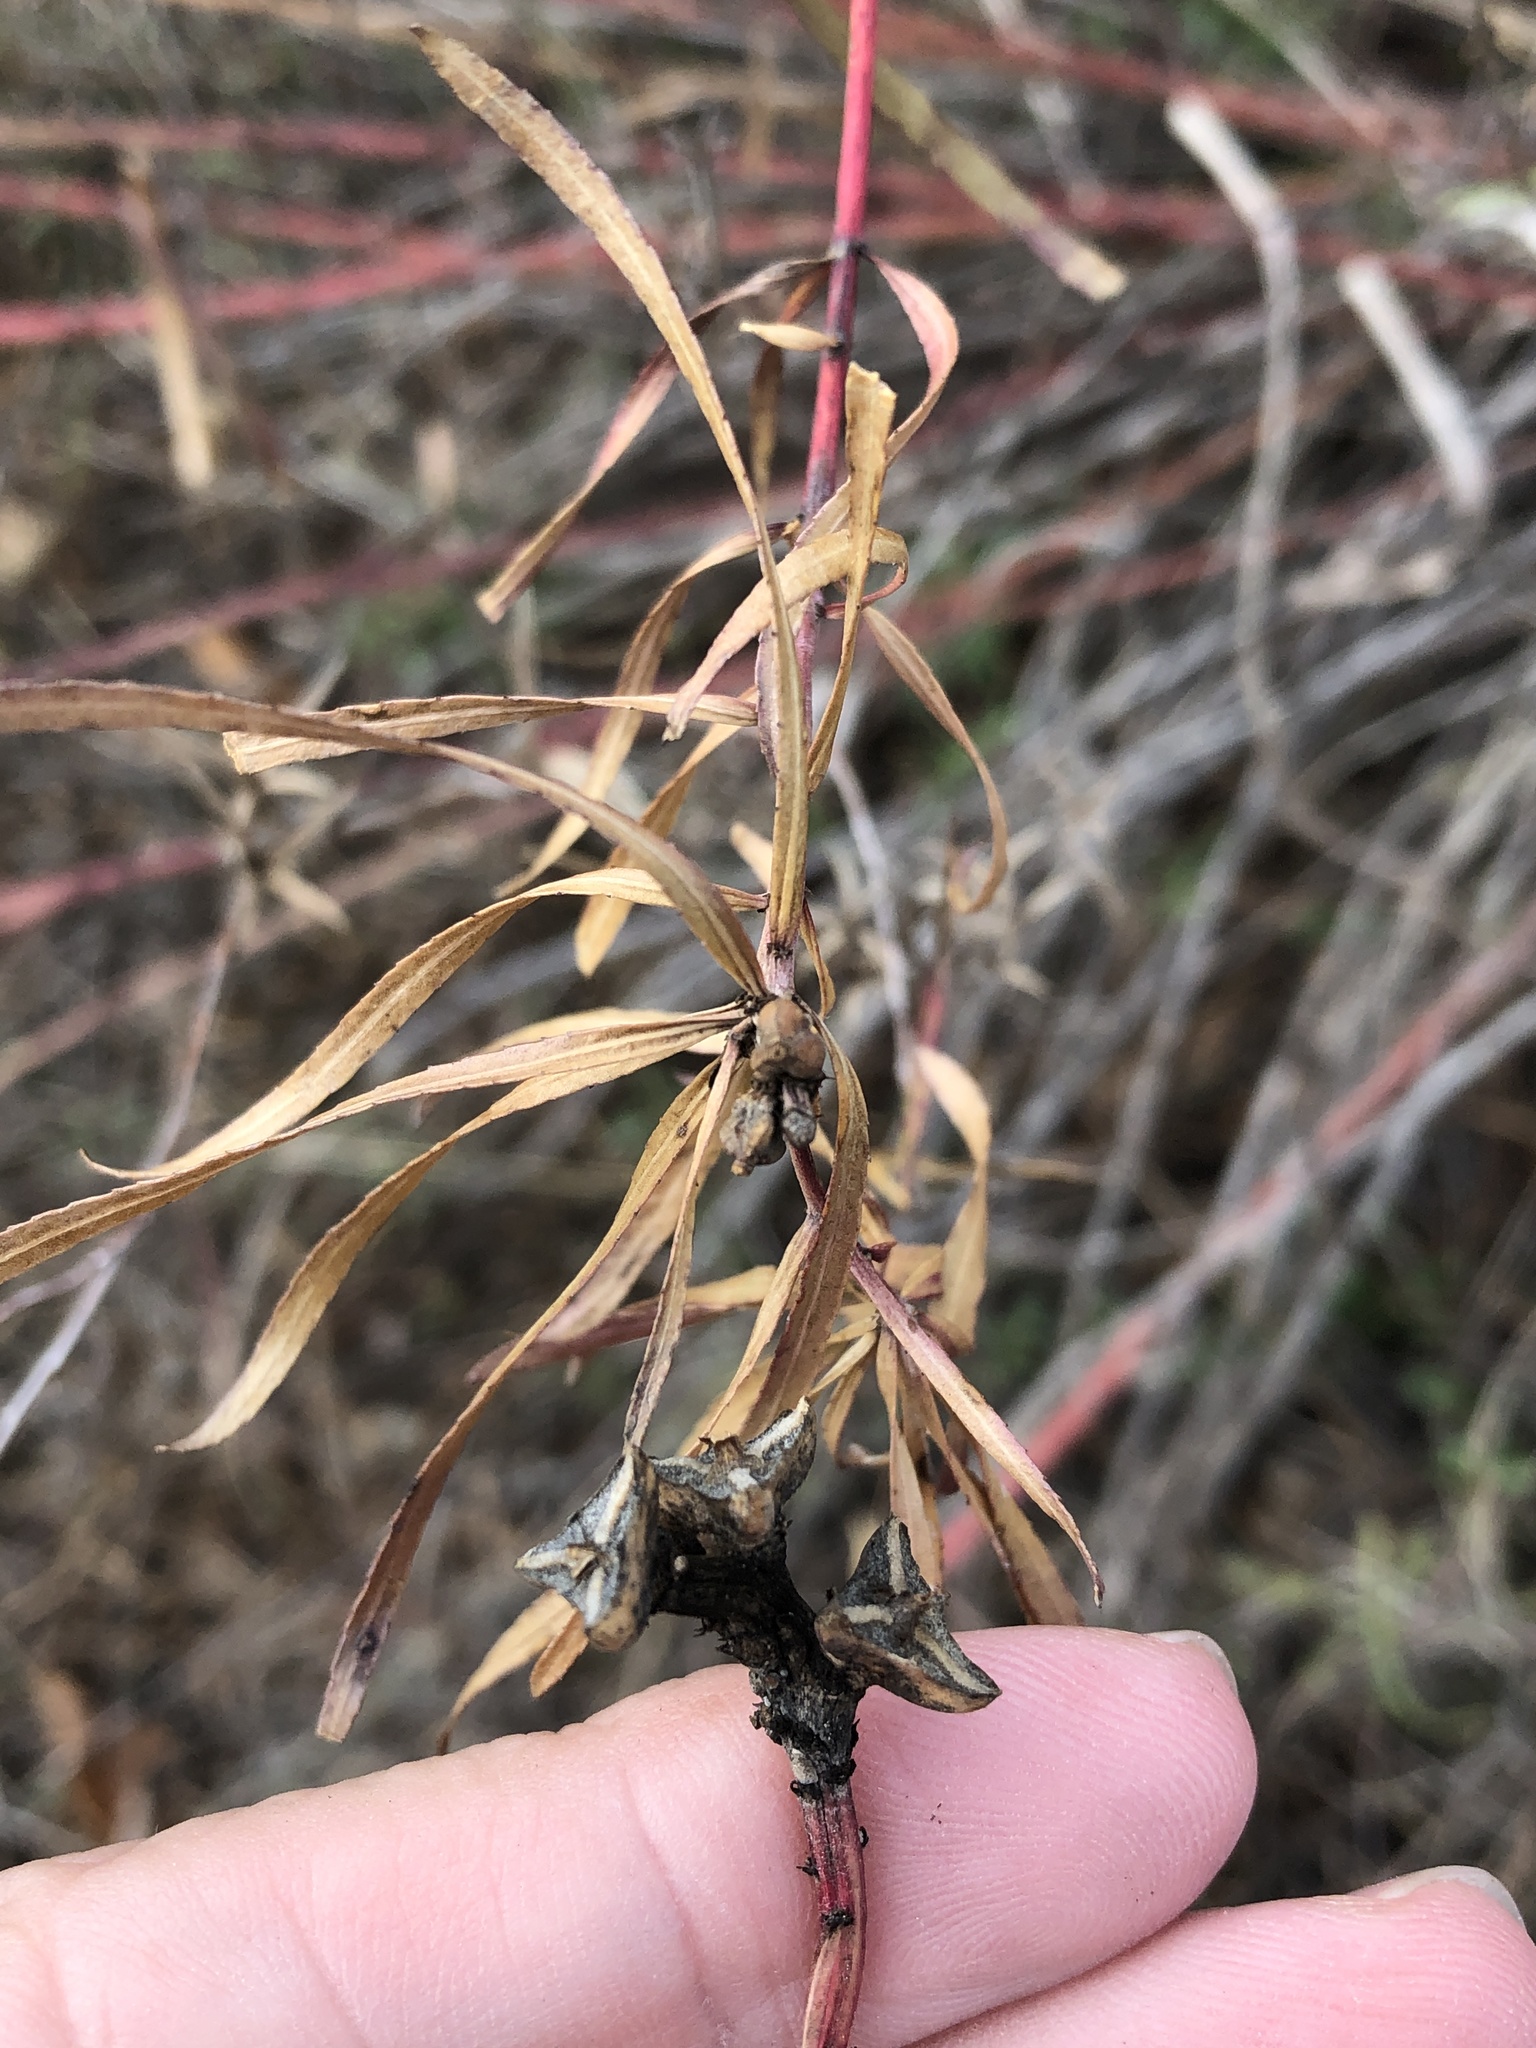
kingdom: Plantae
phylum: Tracheophyta
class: Magnoliopsida
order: Malpighiales
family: Euphorbiaceae
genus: Stillingia
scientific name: Stillingia texana
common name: Texas stillingia
